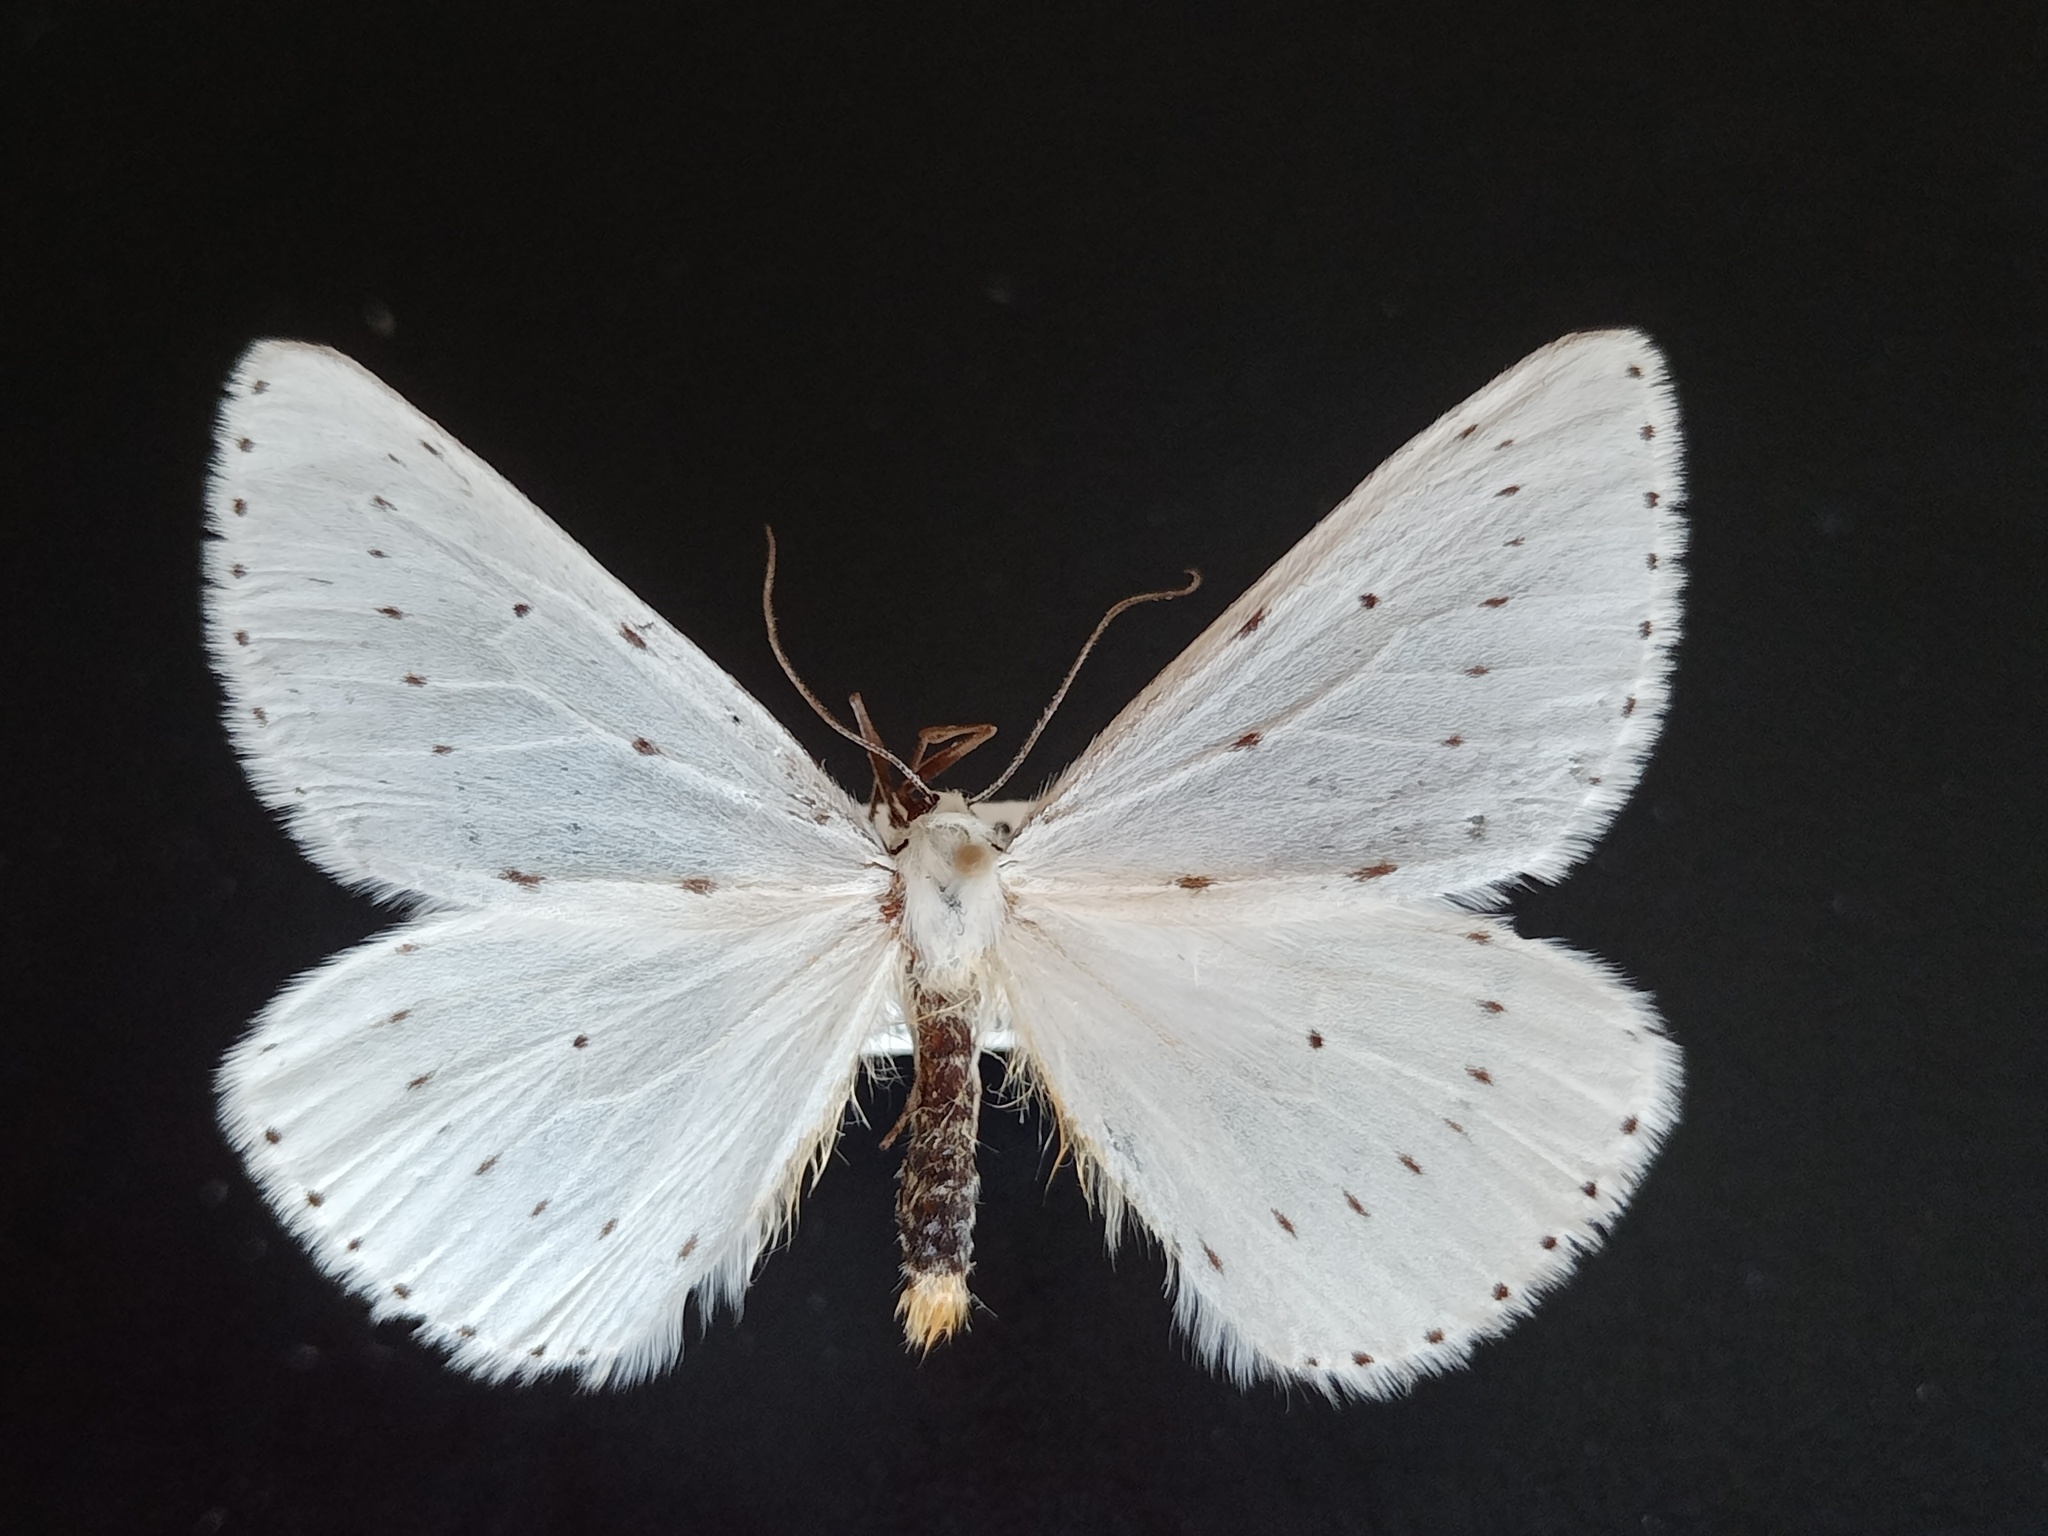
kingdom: Animalia
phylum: Arthropoda
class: Insecta
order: Lepidoptera
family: Geometridae
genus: Orthostixis
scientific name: Orthostixis calcularia
